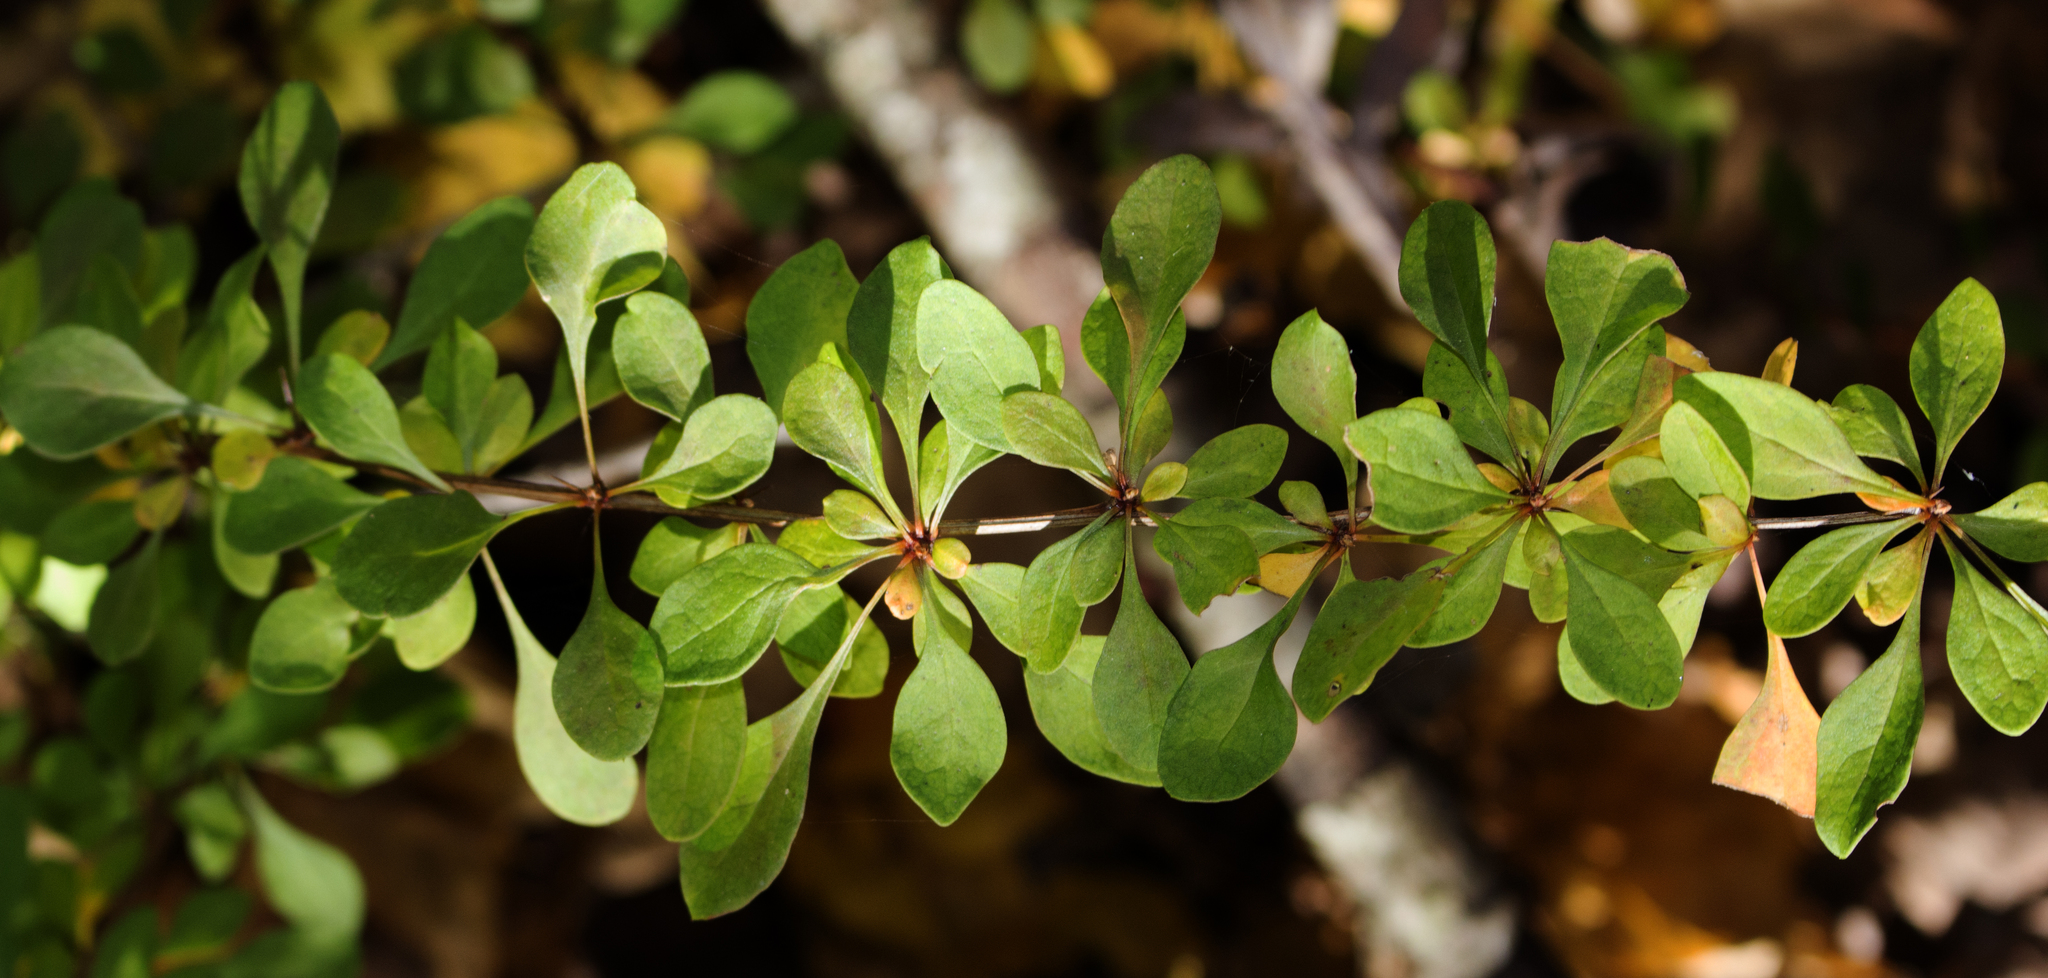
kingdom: Plantae
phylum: Tracheophyta
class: Magnoliopsida
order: Ranunculales
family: Berberidaceae
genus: Berberis
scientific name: Berberis thunbergii
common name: Japanese barberry
